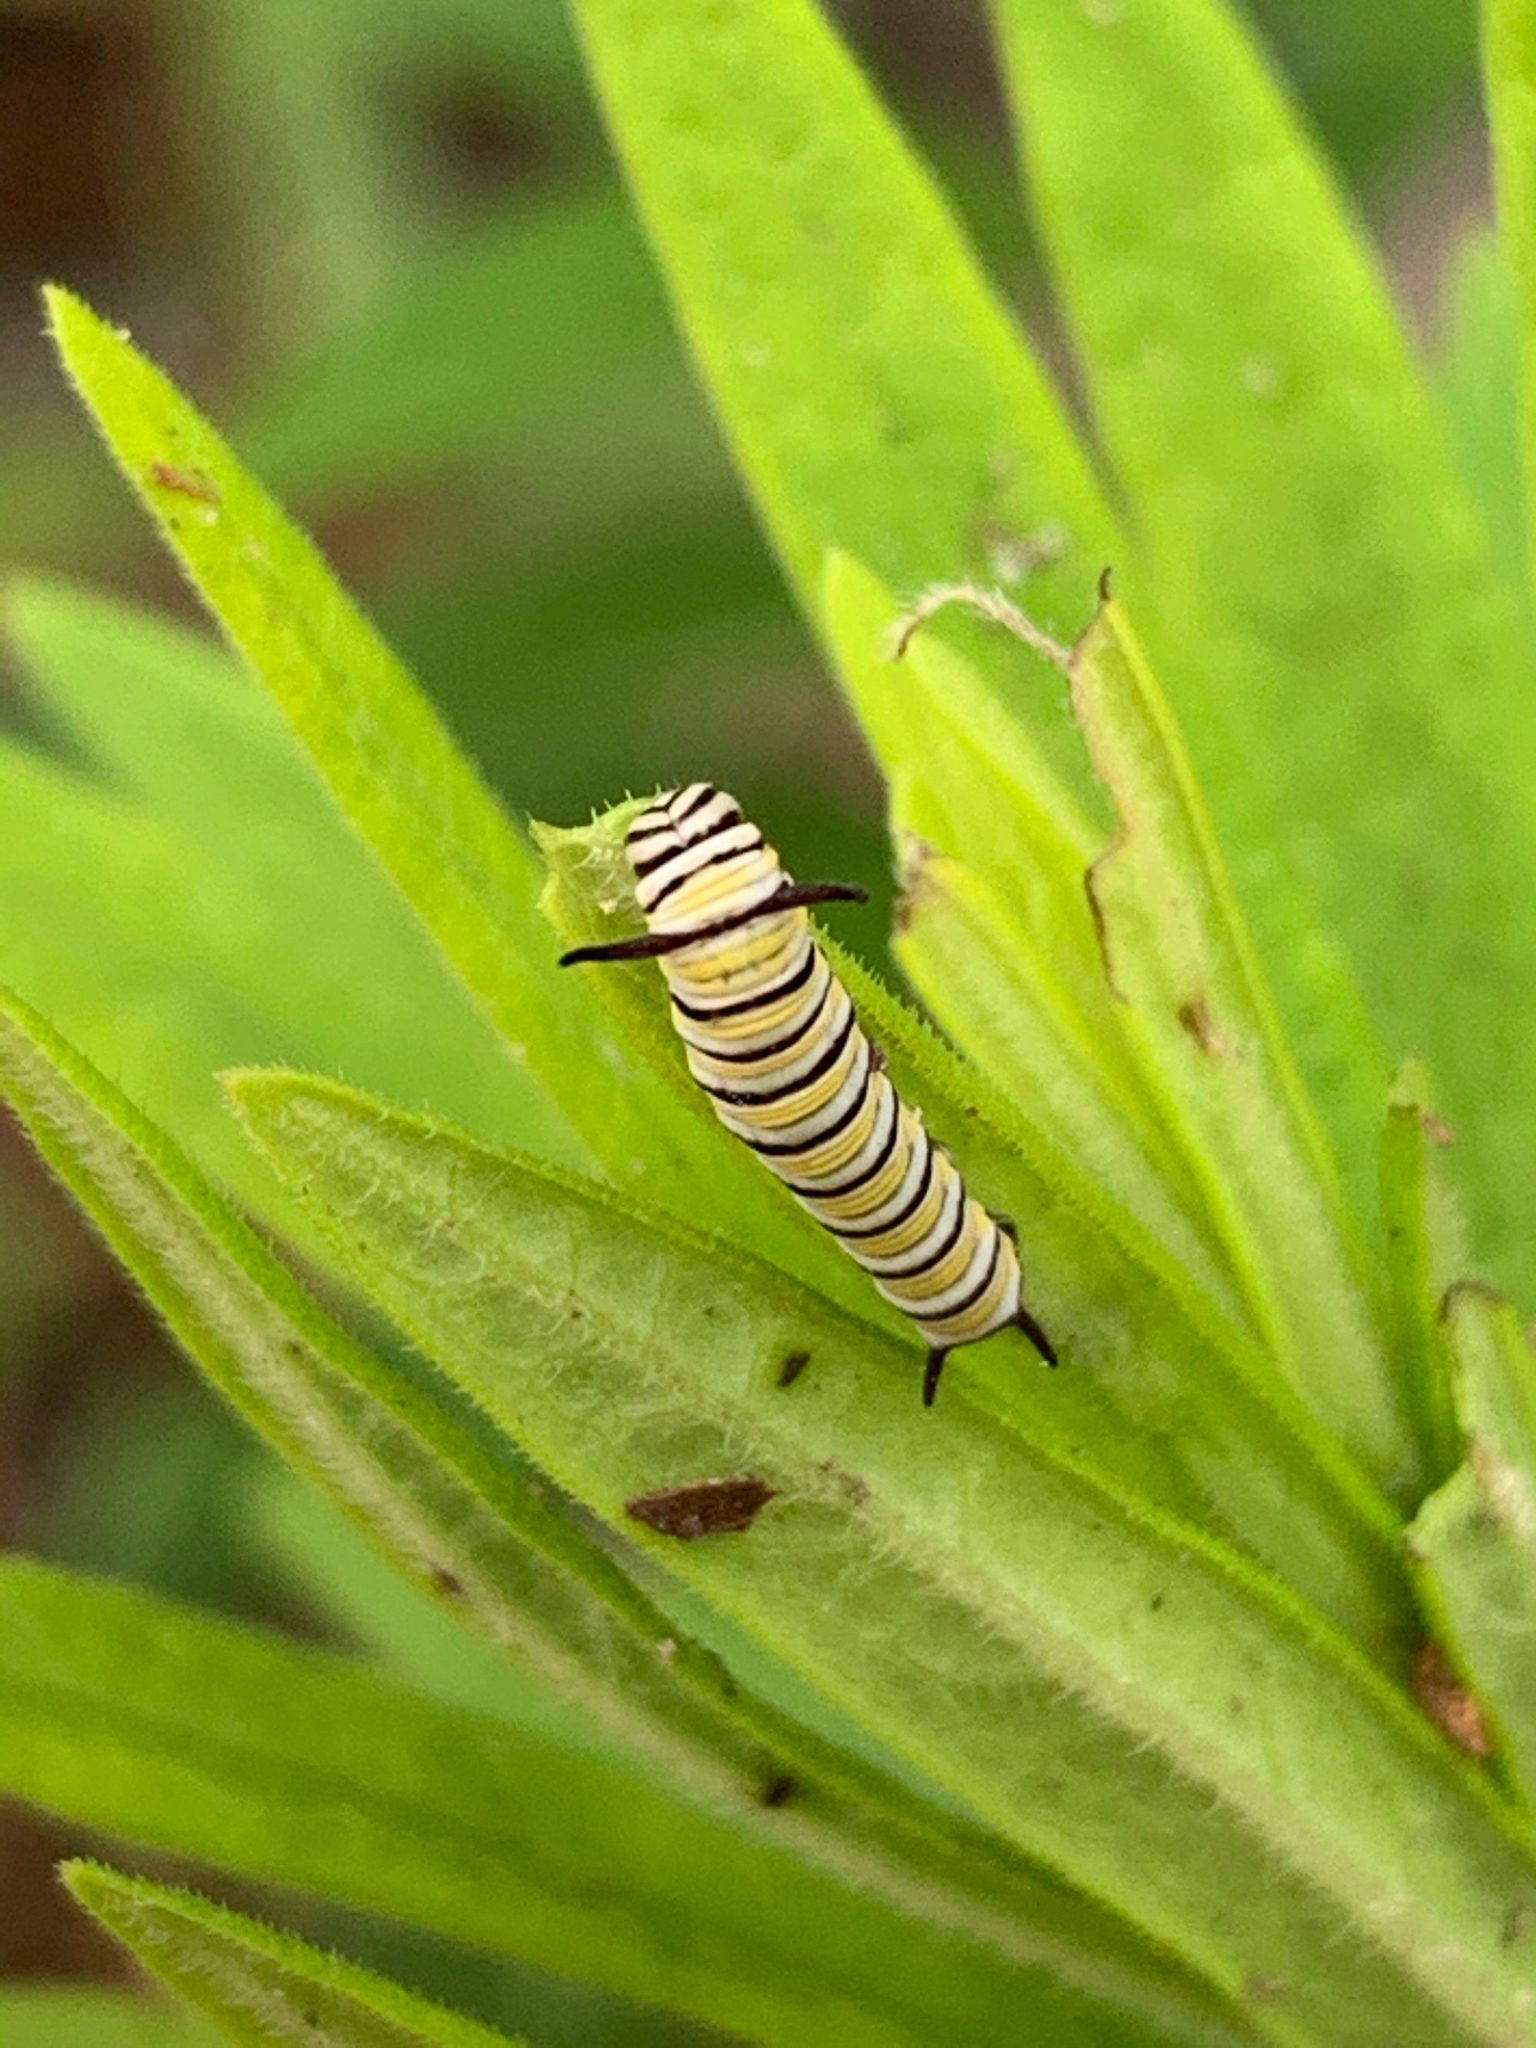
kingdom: Animalia
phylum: Arthropoda
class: Insecta
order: Lepidoptera
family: Nymphalidae
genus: Danaus
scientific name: Danaus plexippus
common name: Monarch
